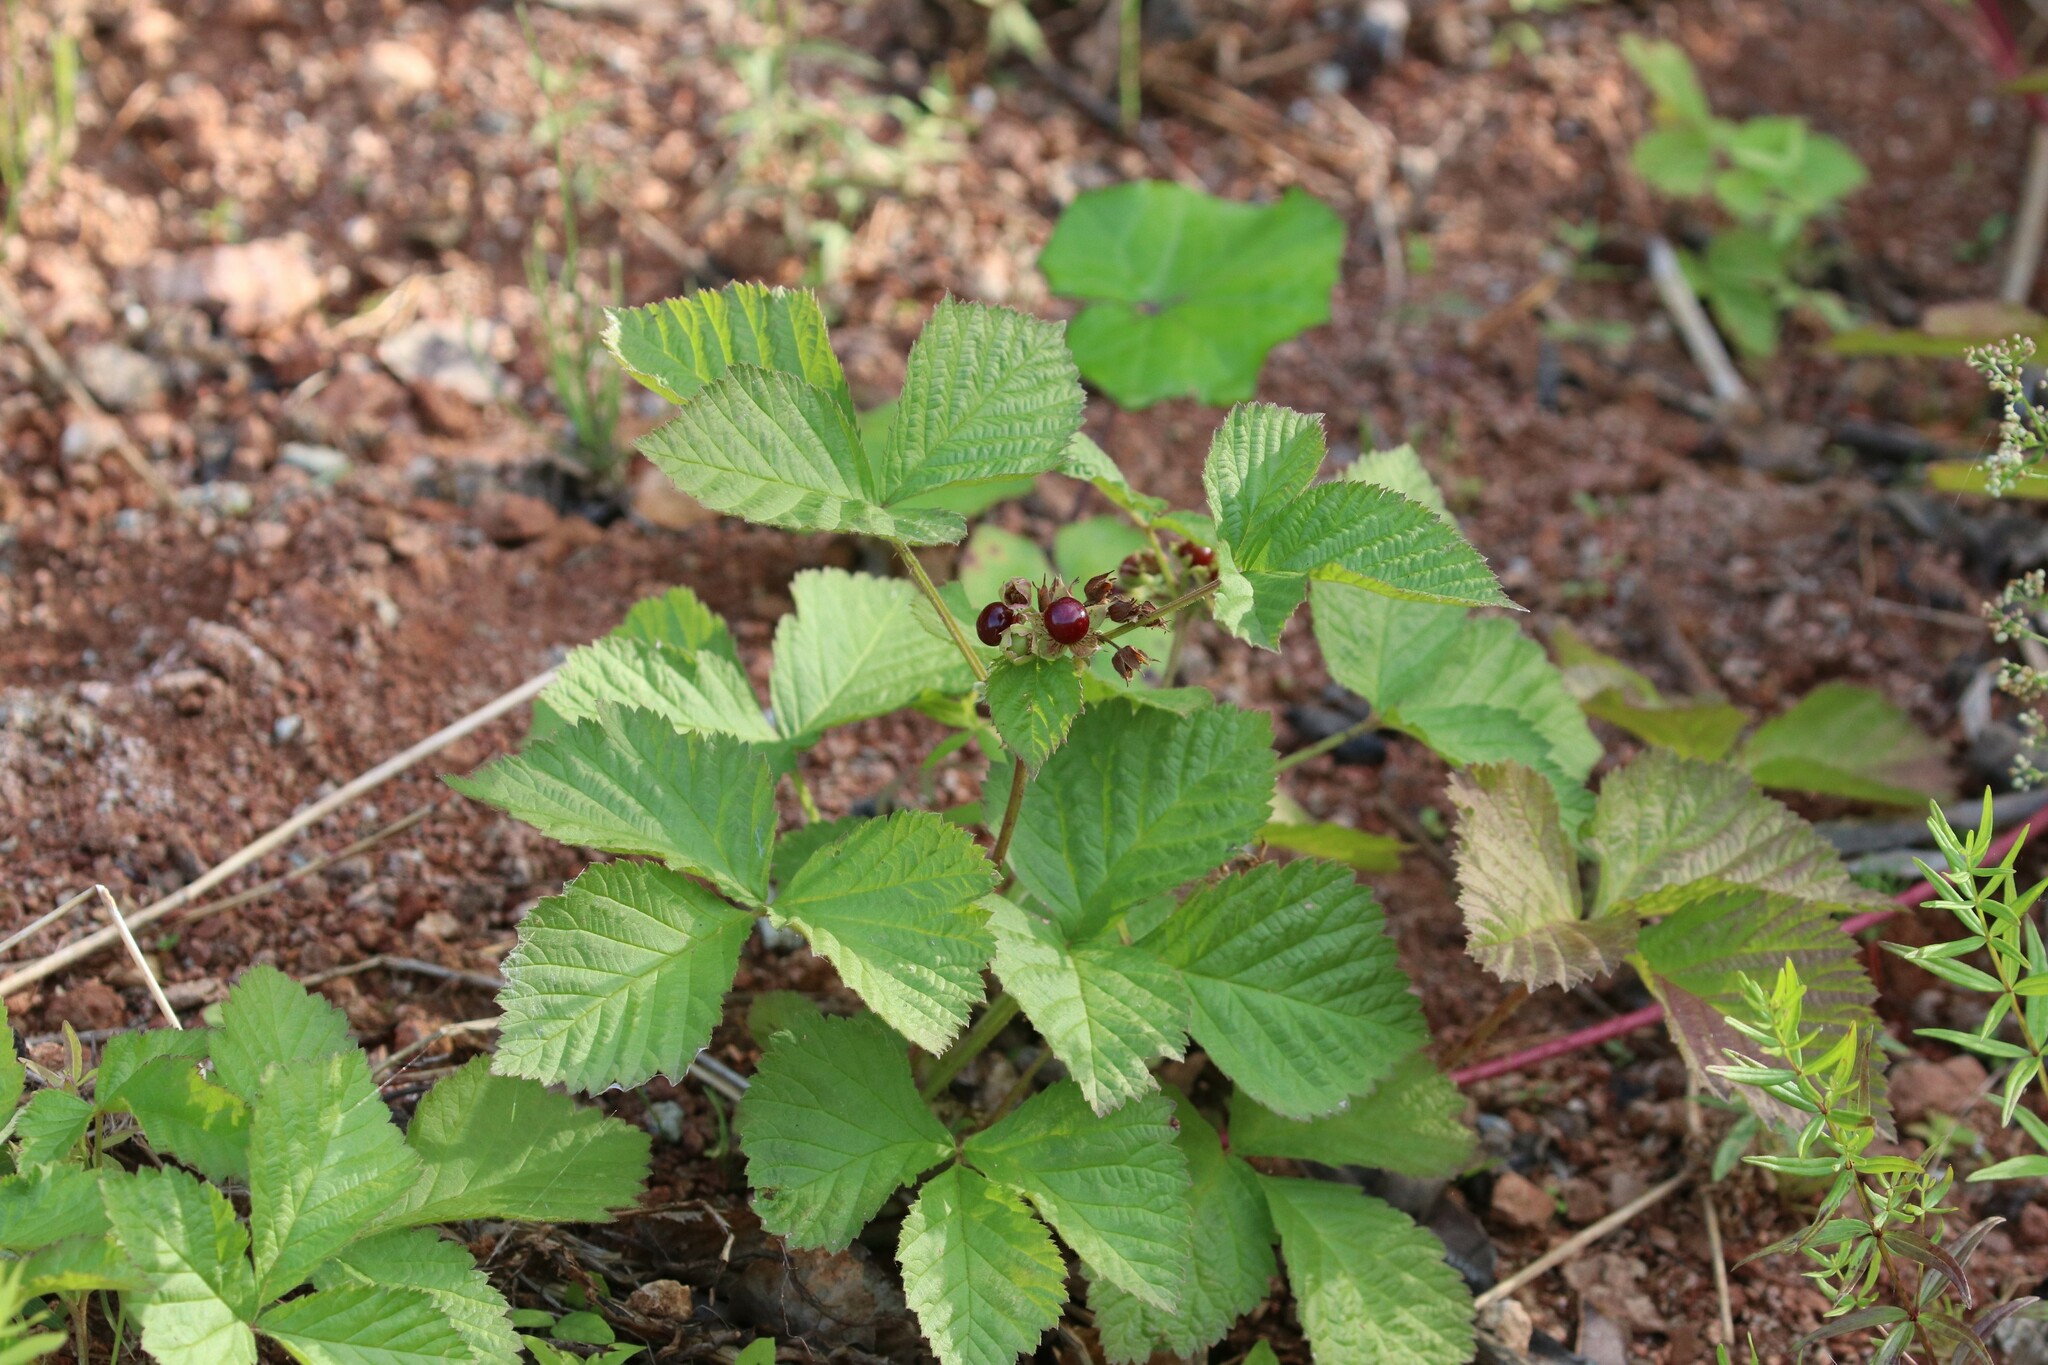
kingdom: Plantae
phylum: Tracheophyta
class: Magnoliopsida
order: Rosales
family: Rosaceae
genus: Rubus
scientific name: Rubus saxatilis
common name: Stone bramble
